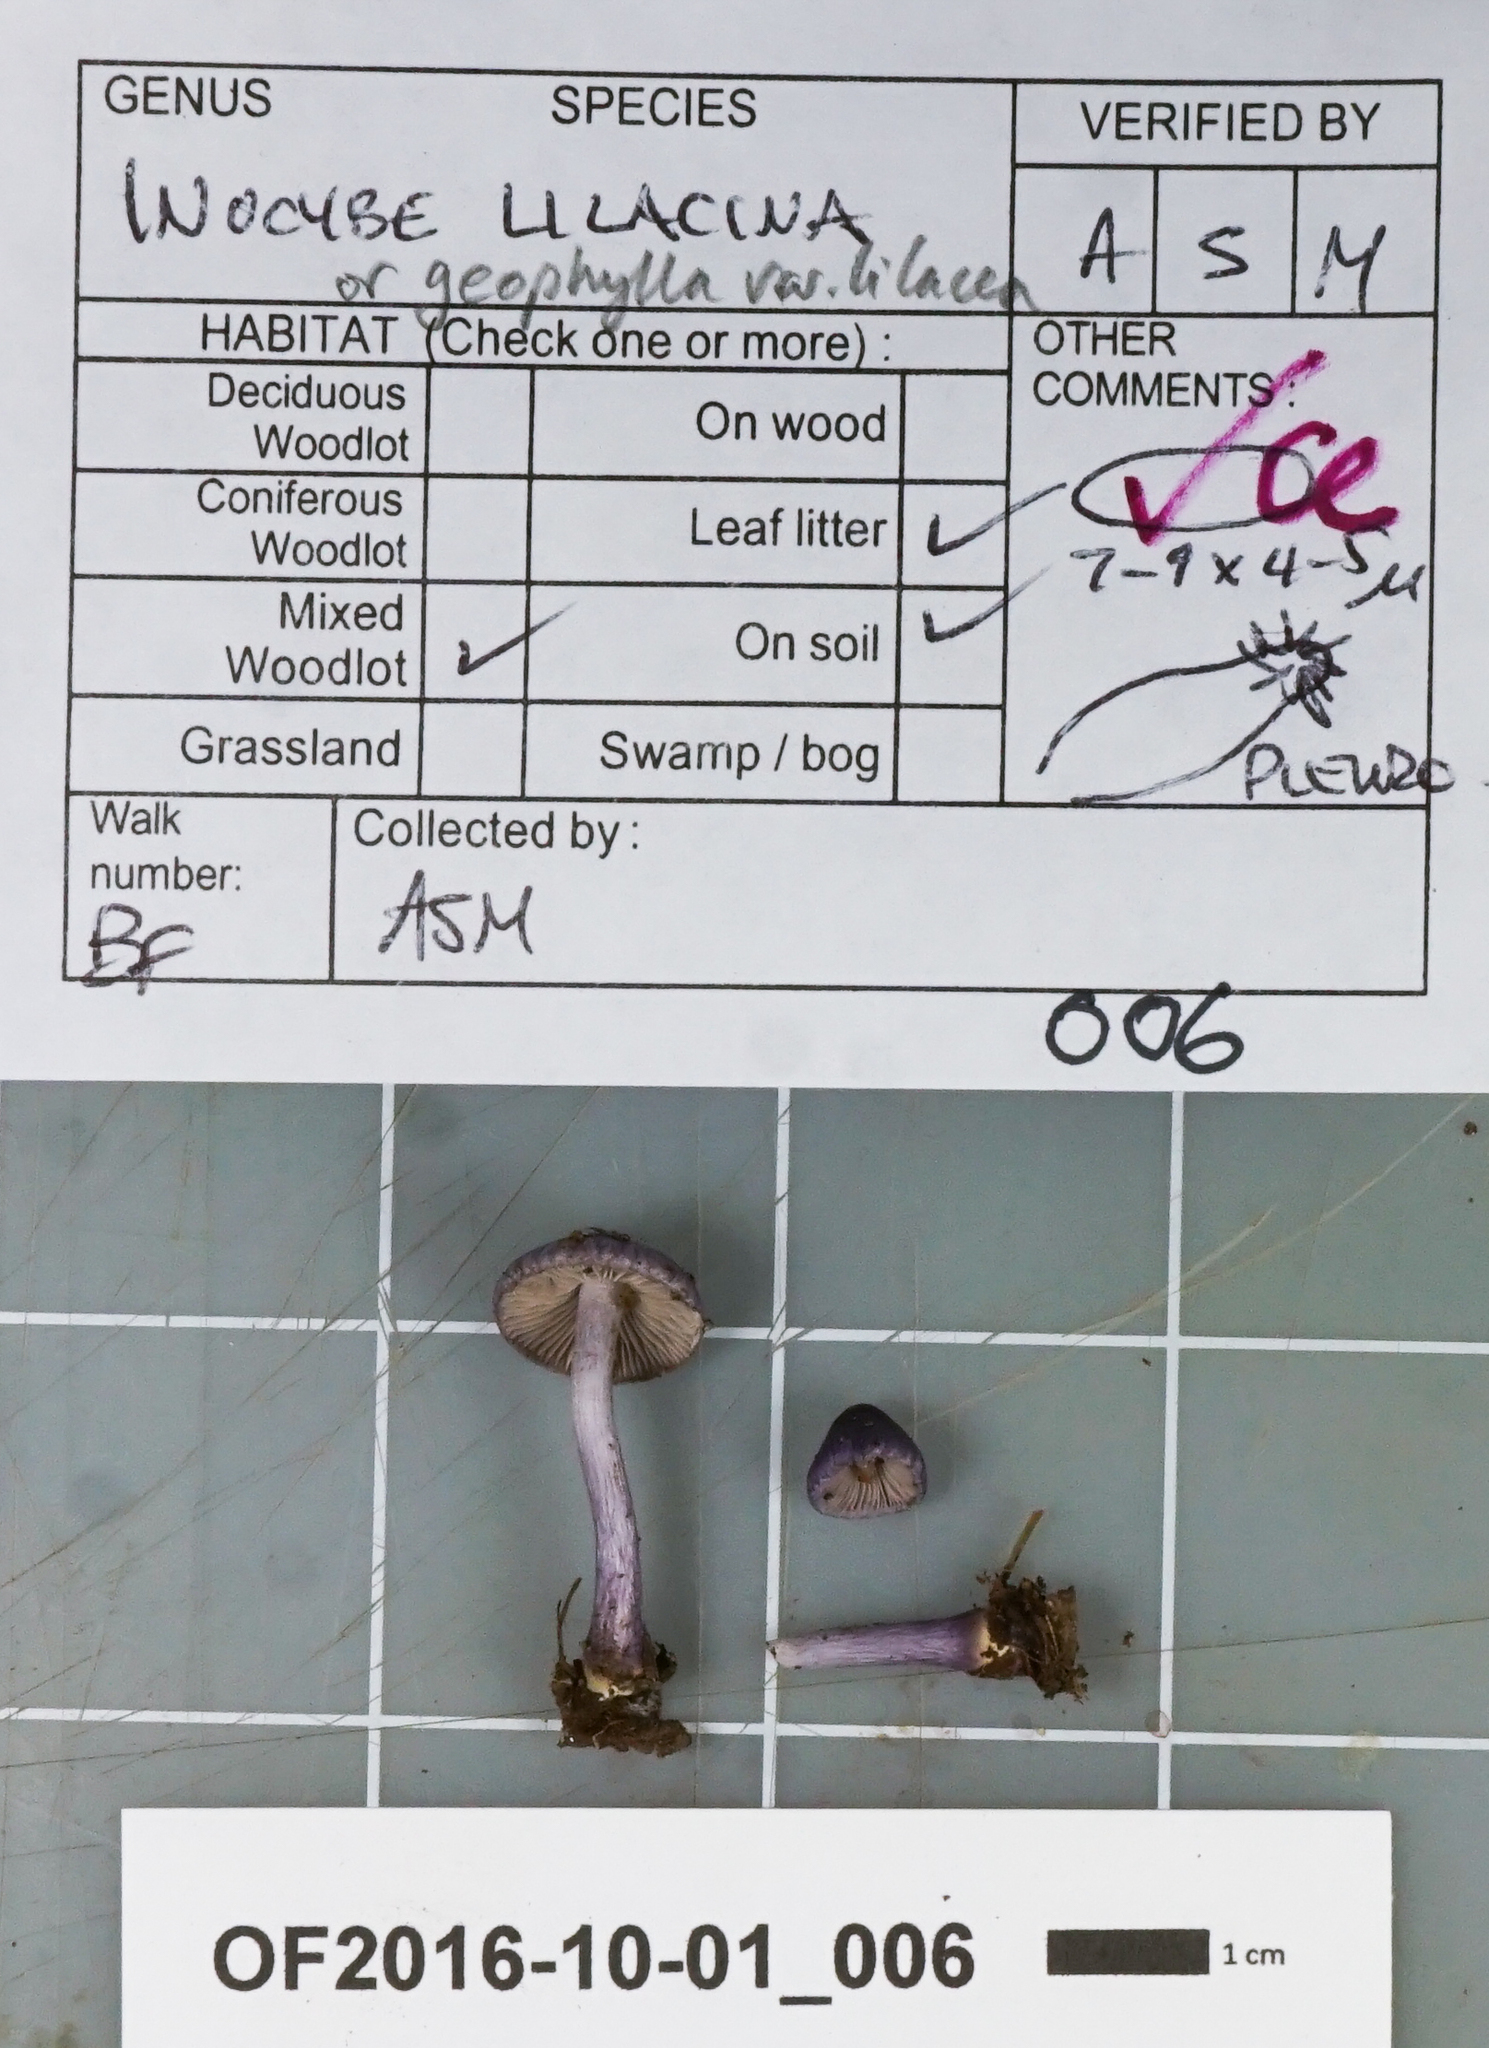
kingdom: Fungi
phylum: Basidiomycota
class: Agaricomycetes
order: Agaricales
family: Inocybaceae
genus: Inocybe
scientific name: Inocybe geophylla
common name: White fibrecap
